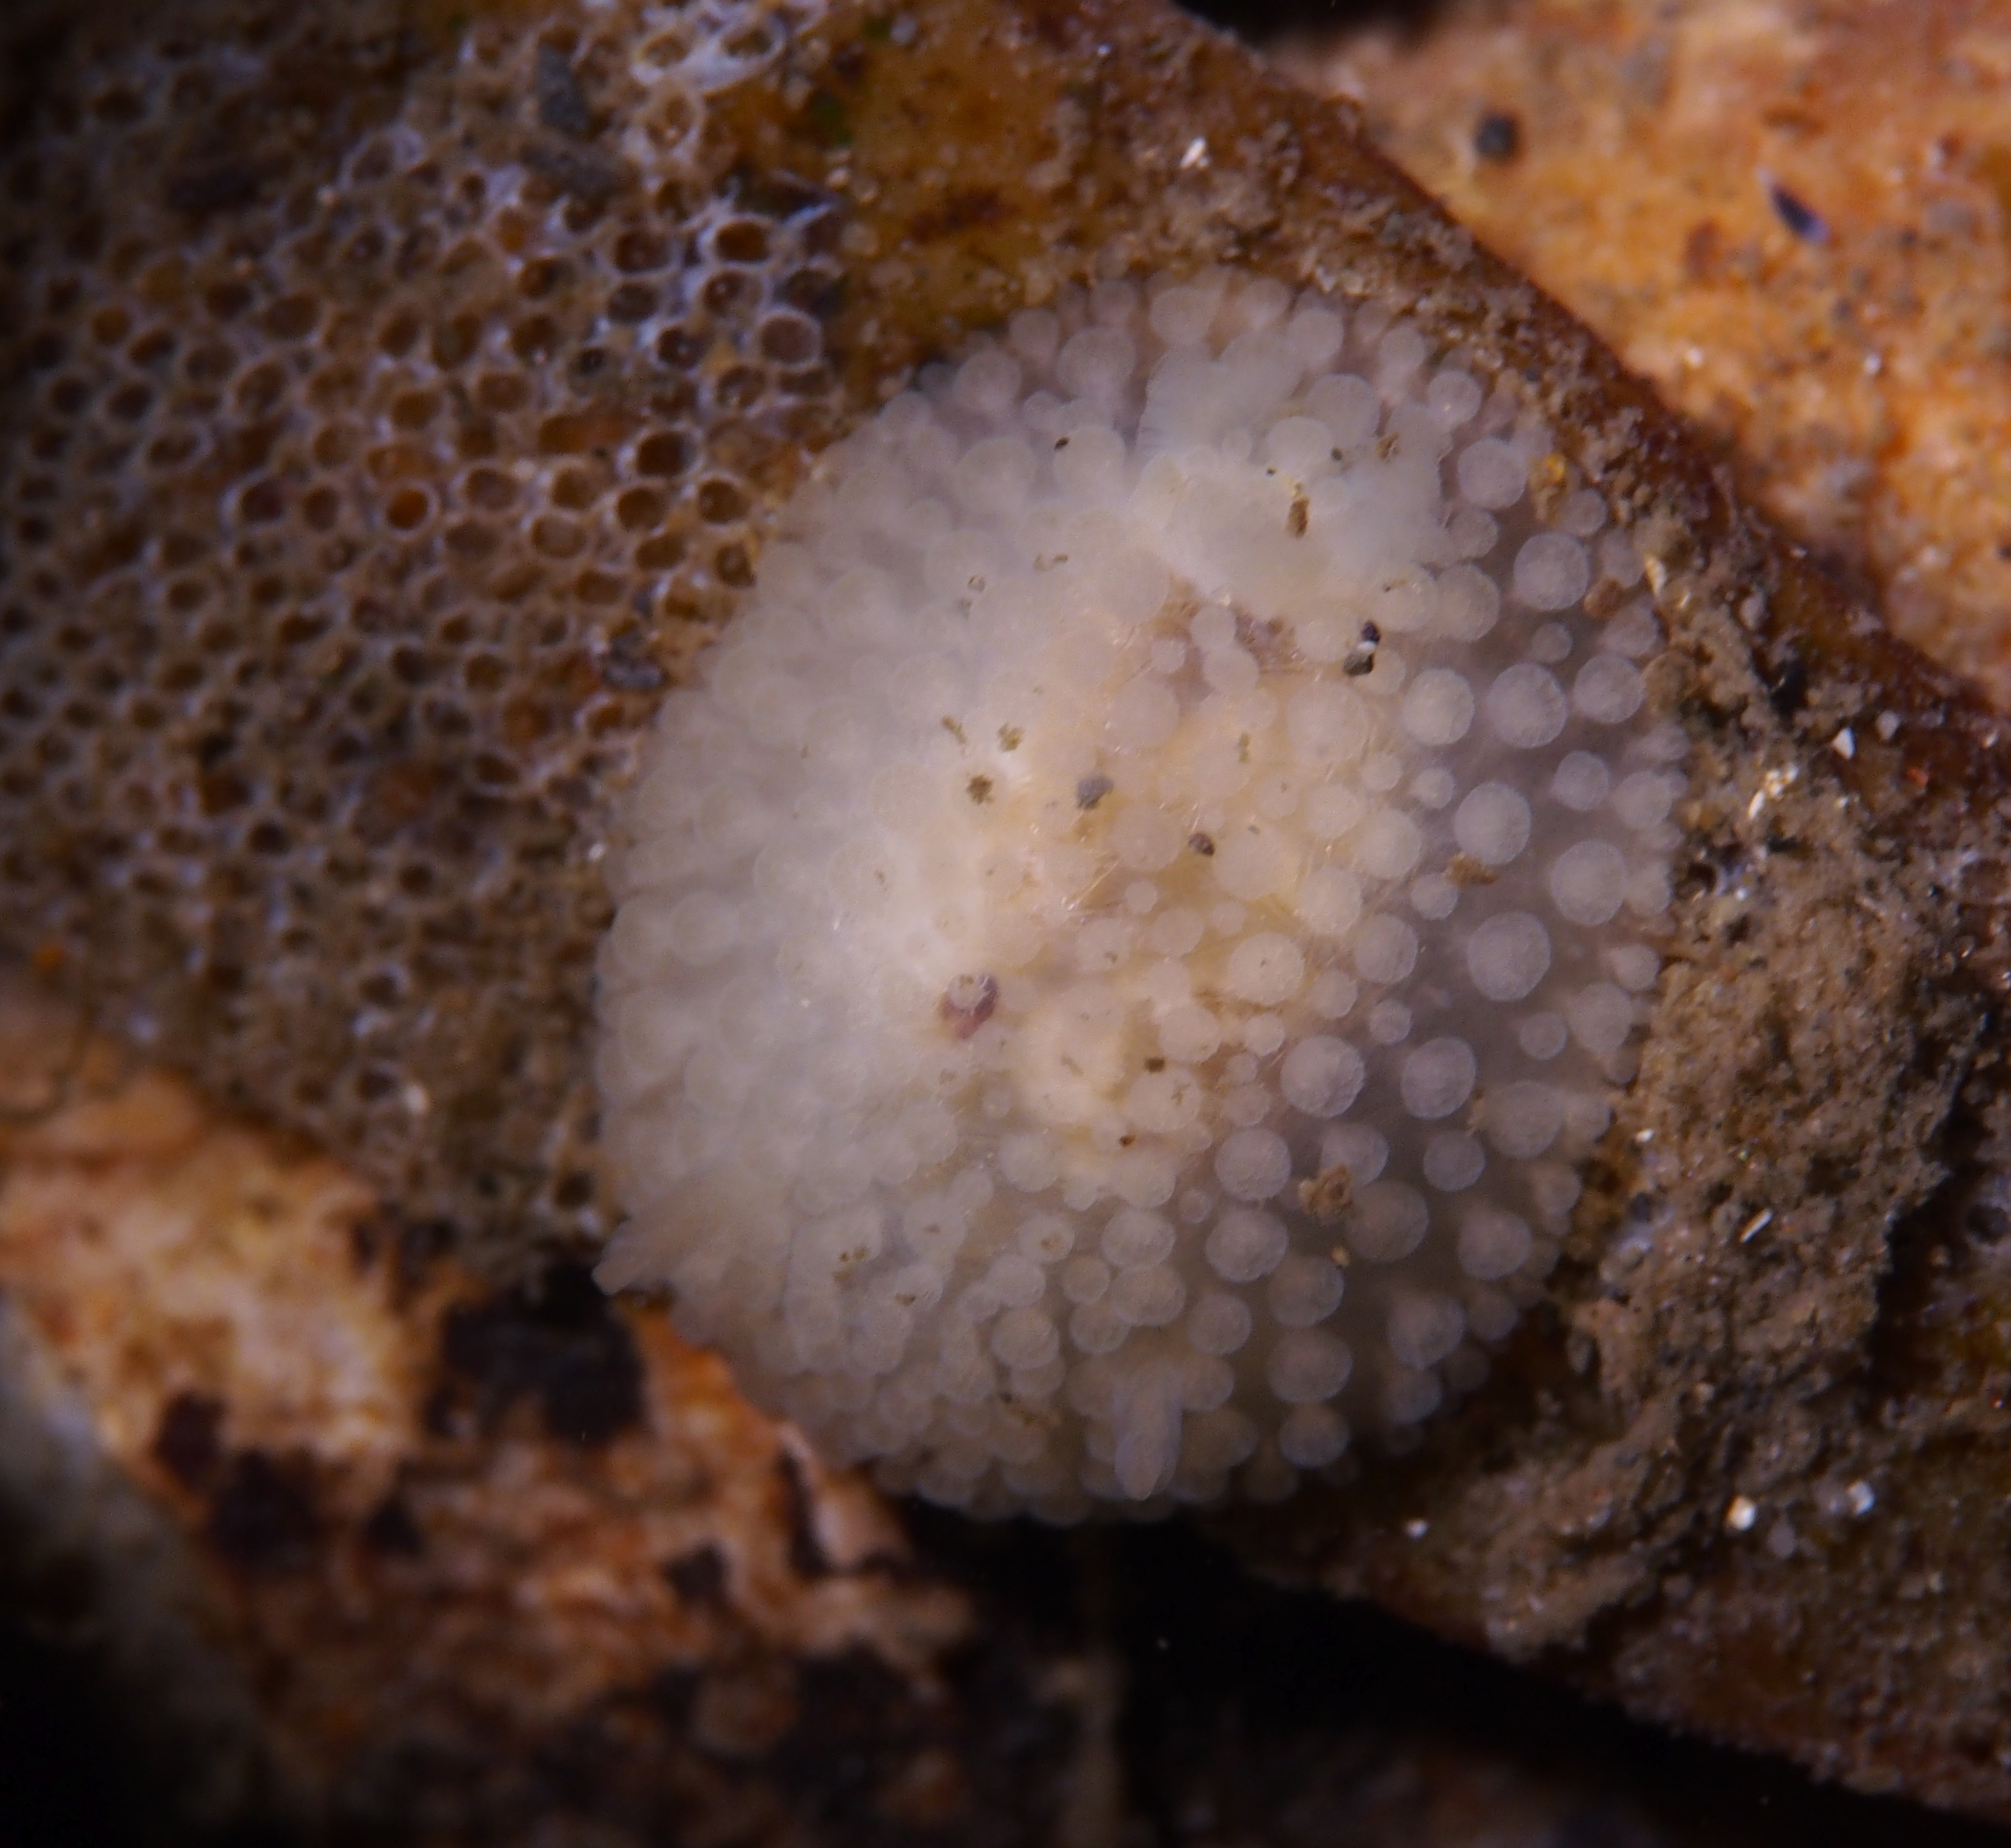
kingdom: Animalia
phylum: Mollusca
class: Gastropoda
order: Nudibranchia
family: Onchidorididae
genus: Onchidoris
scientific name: Onchidoris muricata
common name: Rough doris
